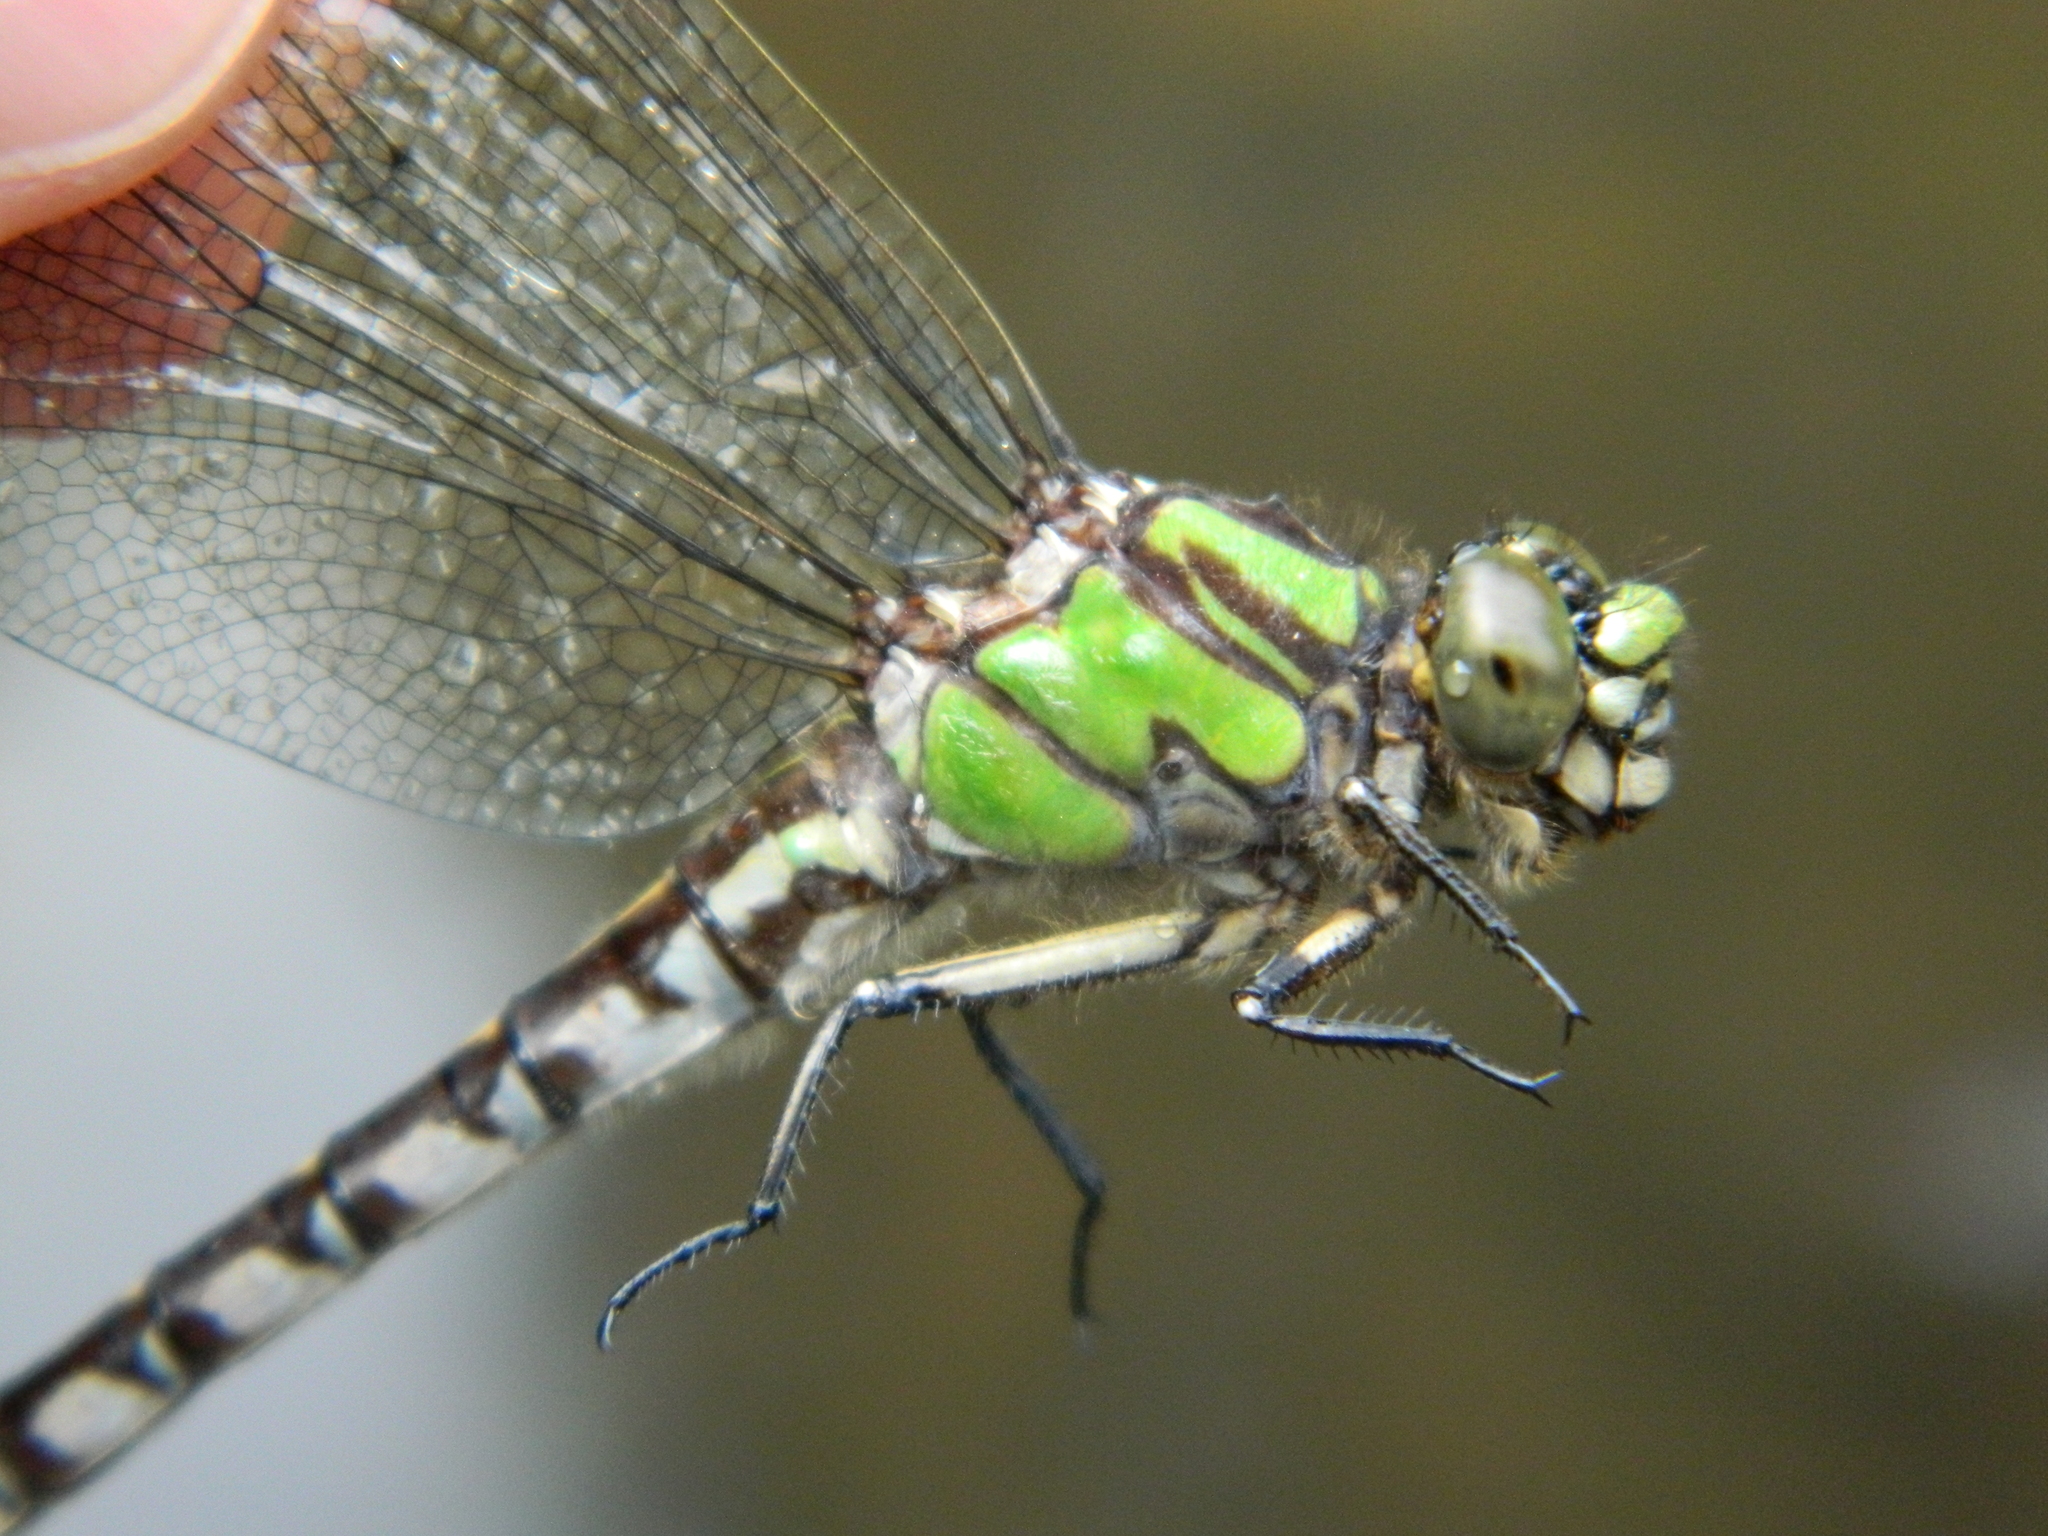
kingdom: Animalia
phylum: Arthropoda
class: Insecta
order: Odonata
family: Gomphidae
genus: Ophiogomphus
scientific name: Ophiogomphus colubrinus
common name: Boreal snaketail
